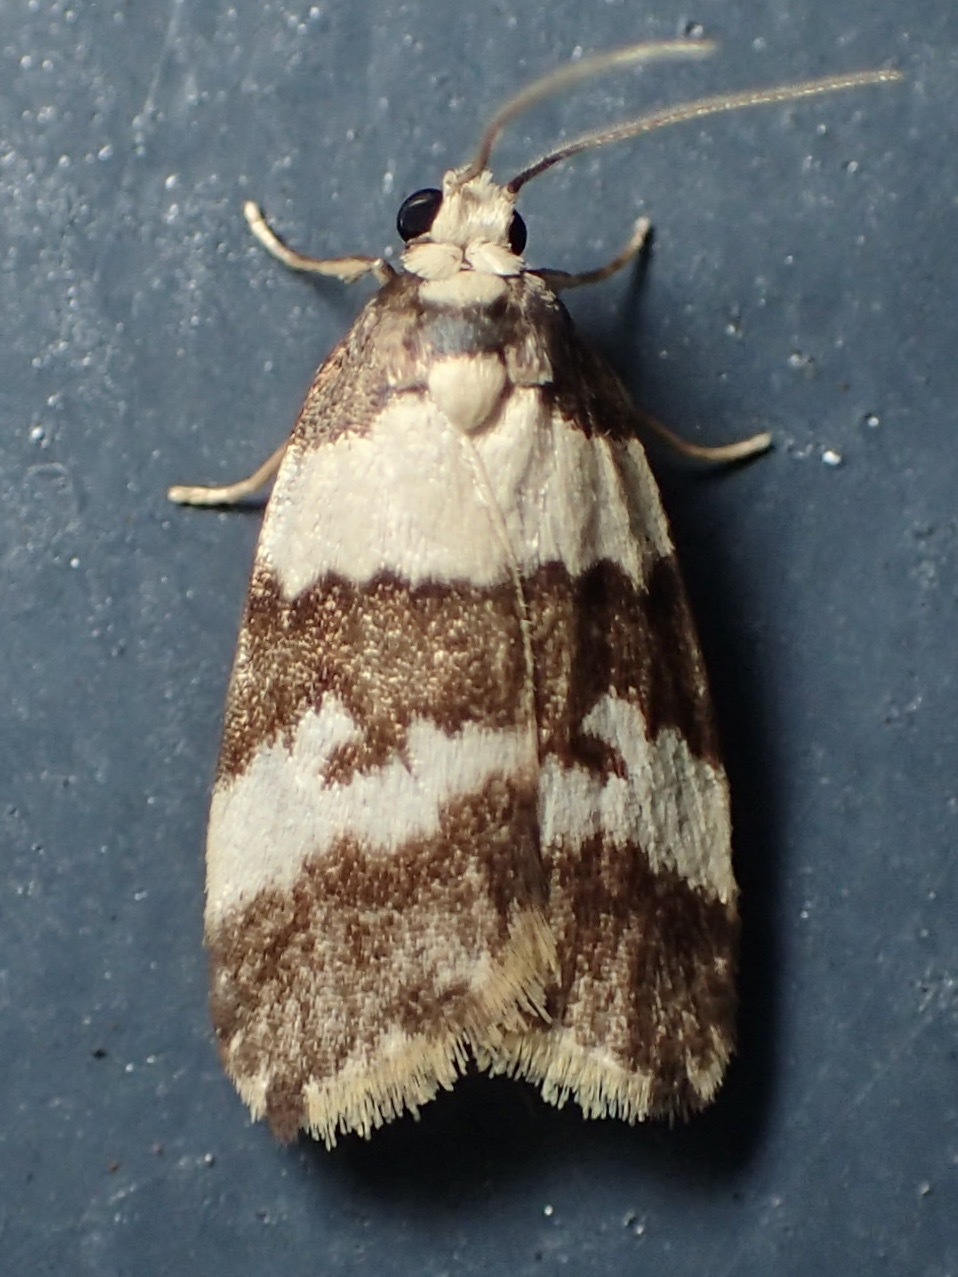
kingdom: Animalia
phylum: Arthropoda
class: Insecta
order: Lepidoptera
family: Erebidae
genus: Halone
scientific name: Halone sejuncta
